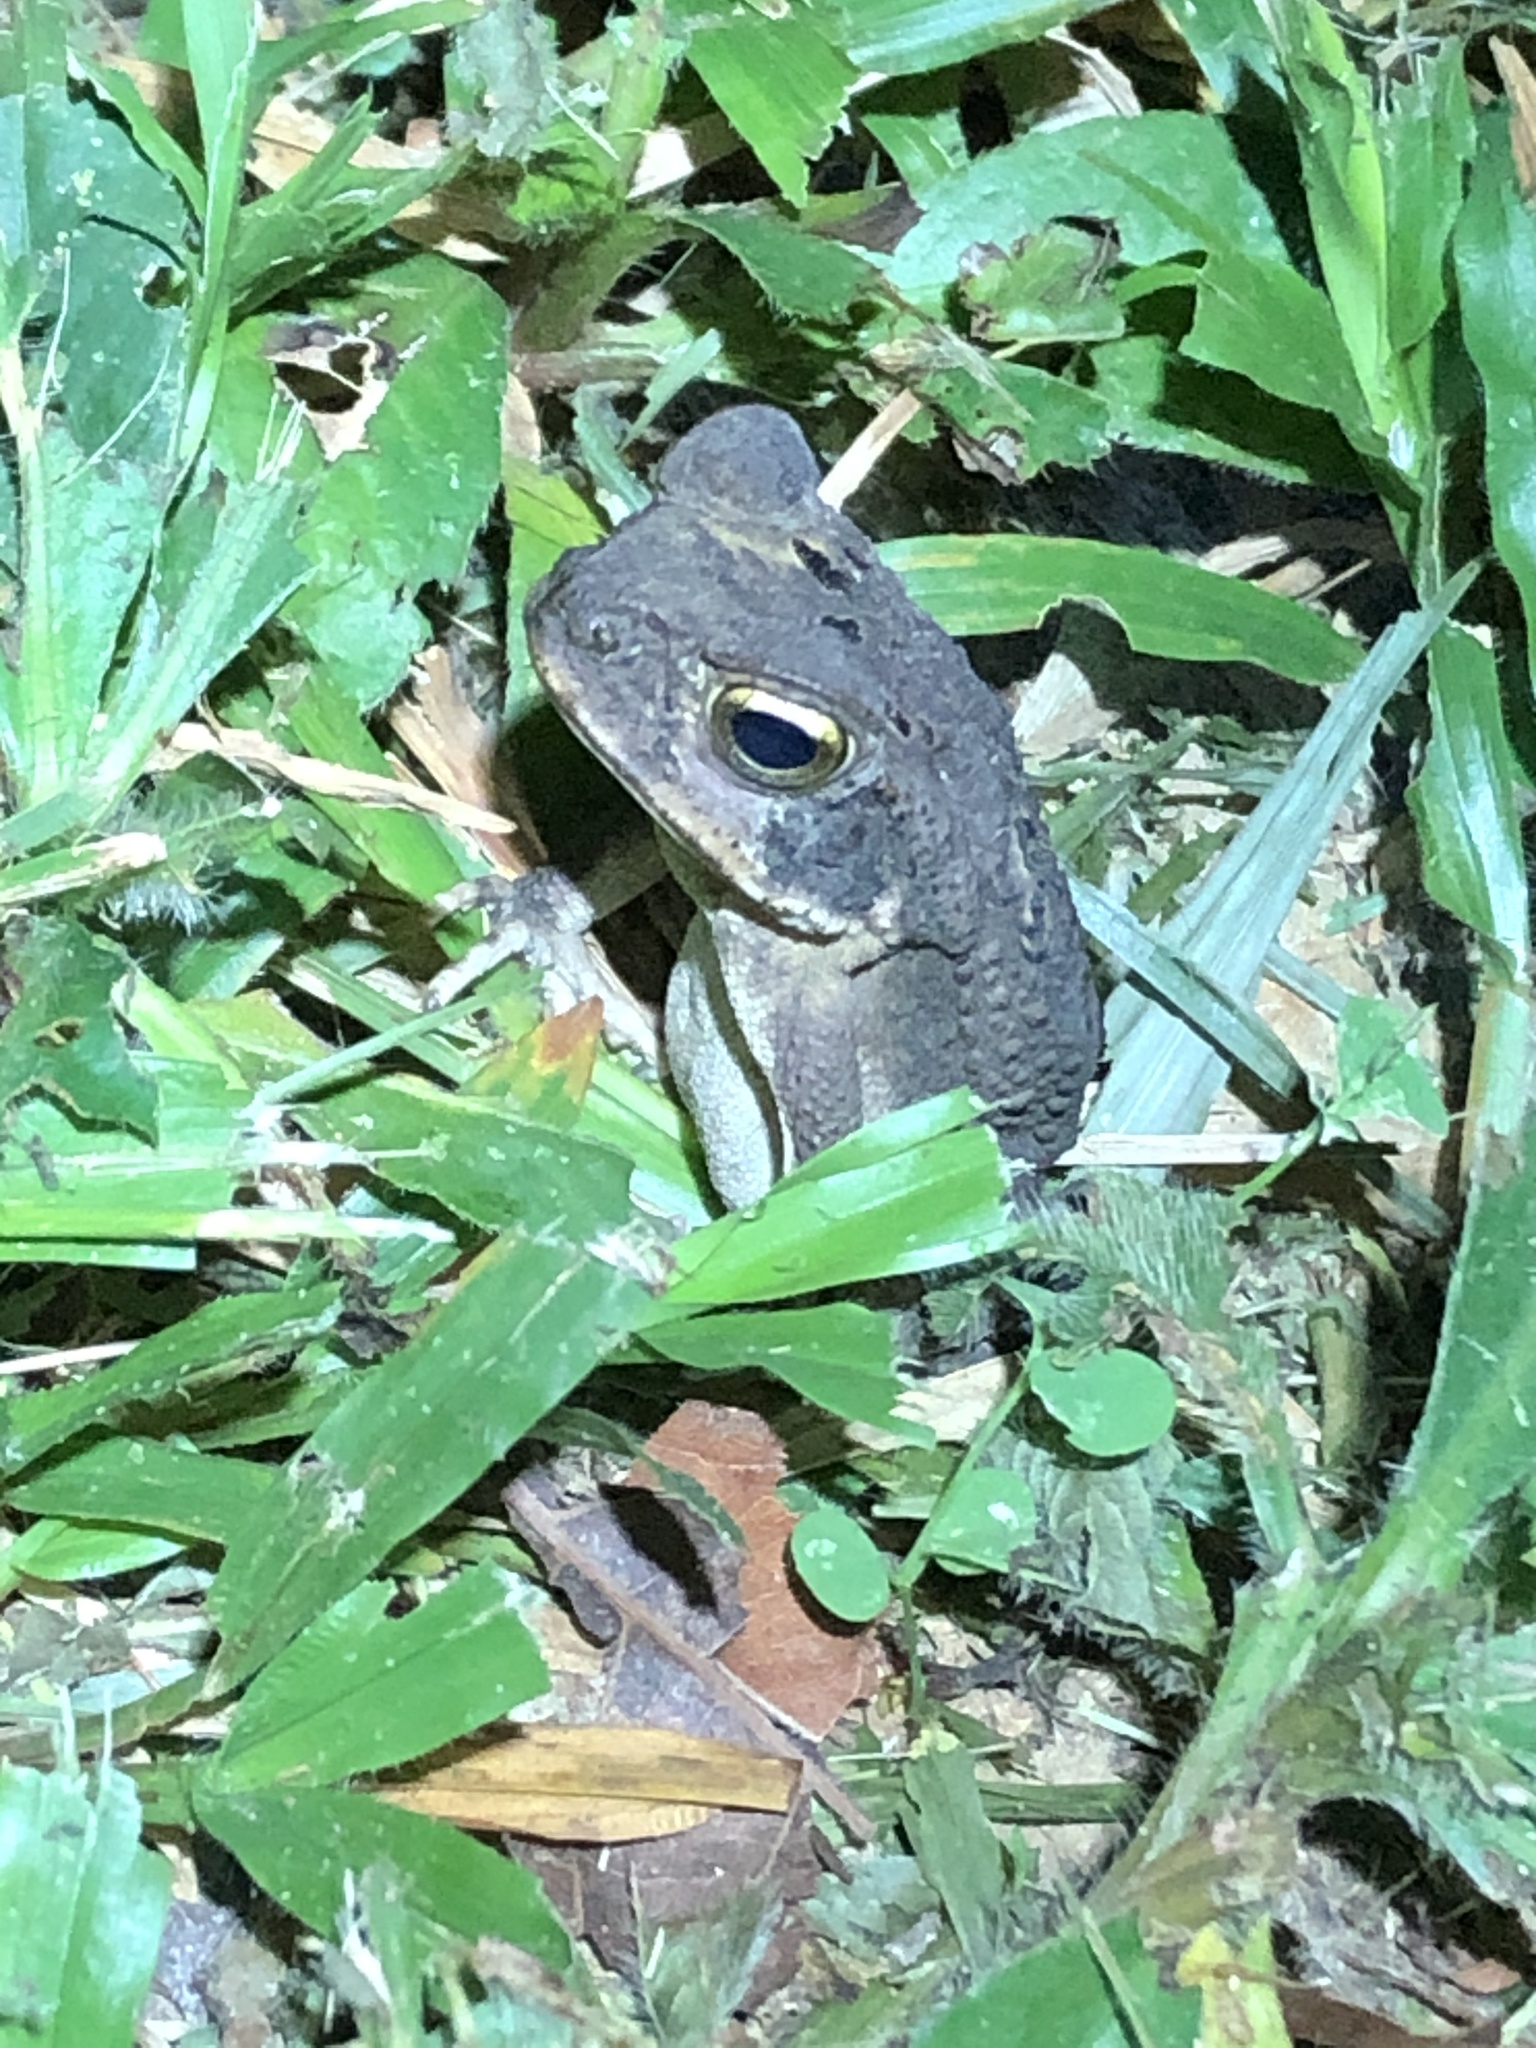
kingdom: Animalia
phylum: Chordata
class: Amphibia
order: Anura
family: Bufonidae
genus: Rhinella
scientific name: Rhinella marina
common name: Cane toad
